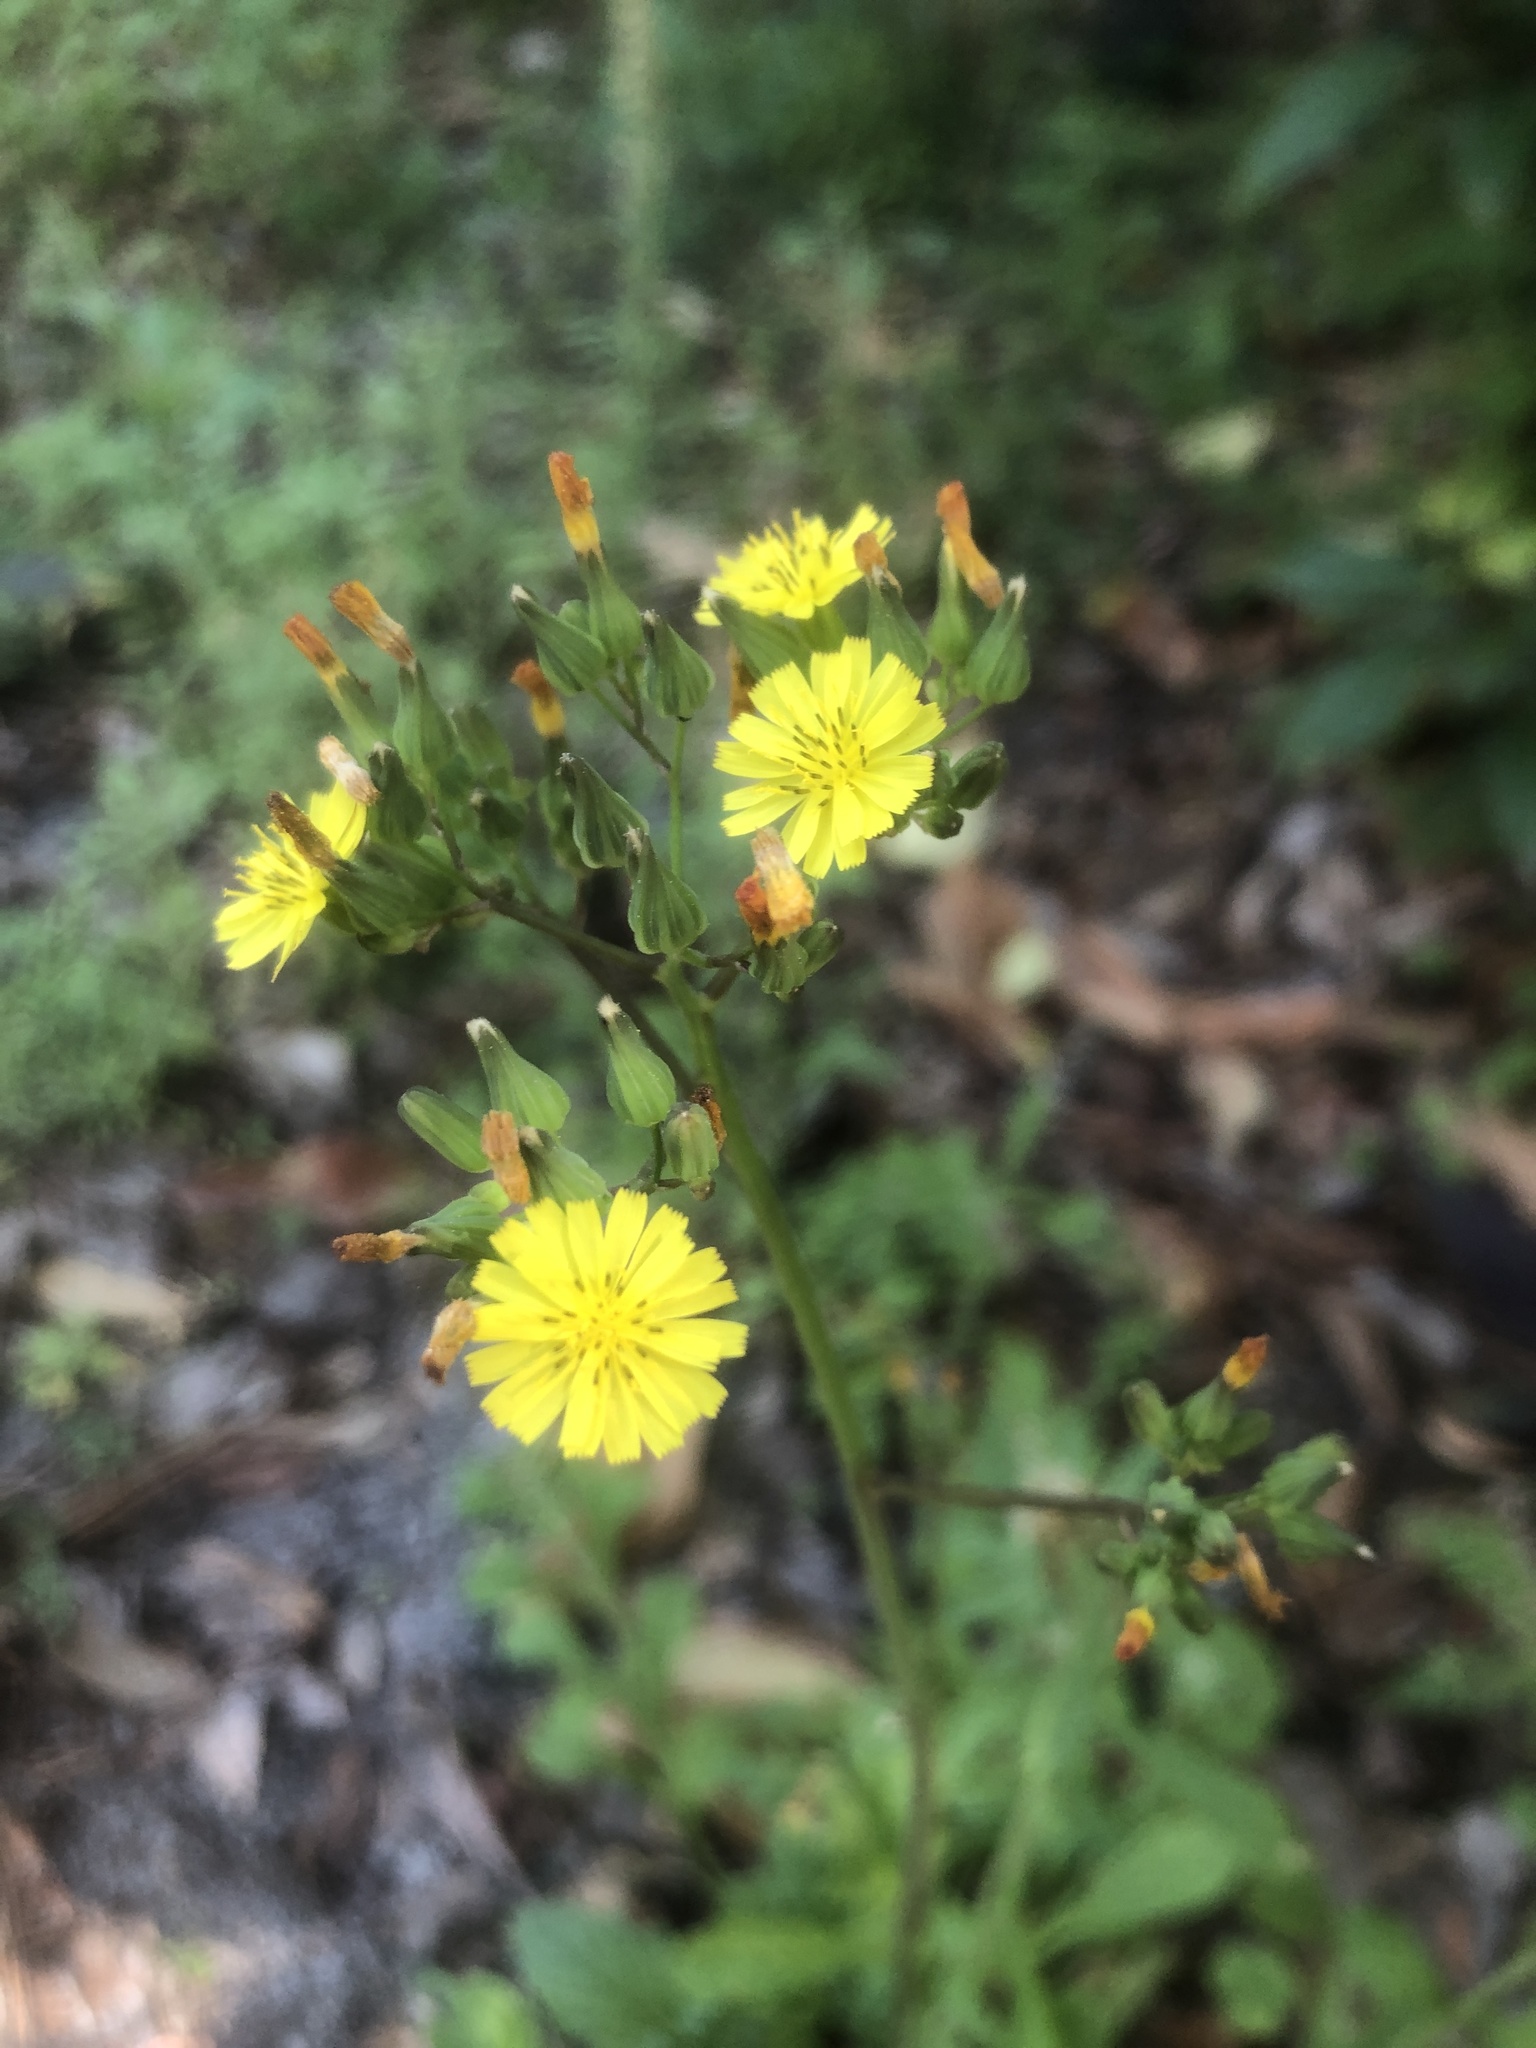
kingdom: Plantae
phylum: Tracheophyta
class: Magnoliopsida
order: Asterales
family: Asteraceae
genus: Youngia
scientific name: Youngia japonica
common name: Oriental false hawksbeard
